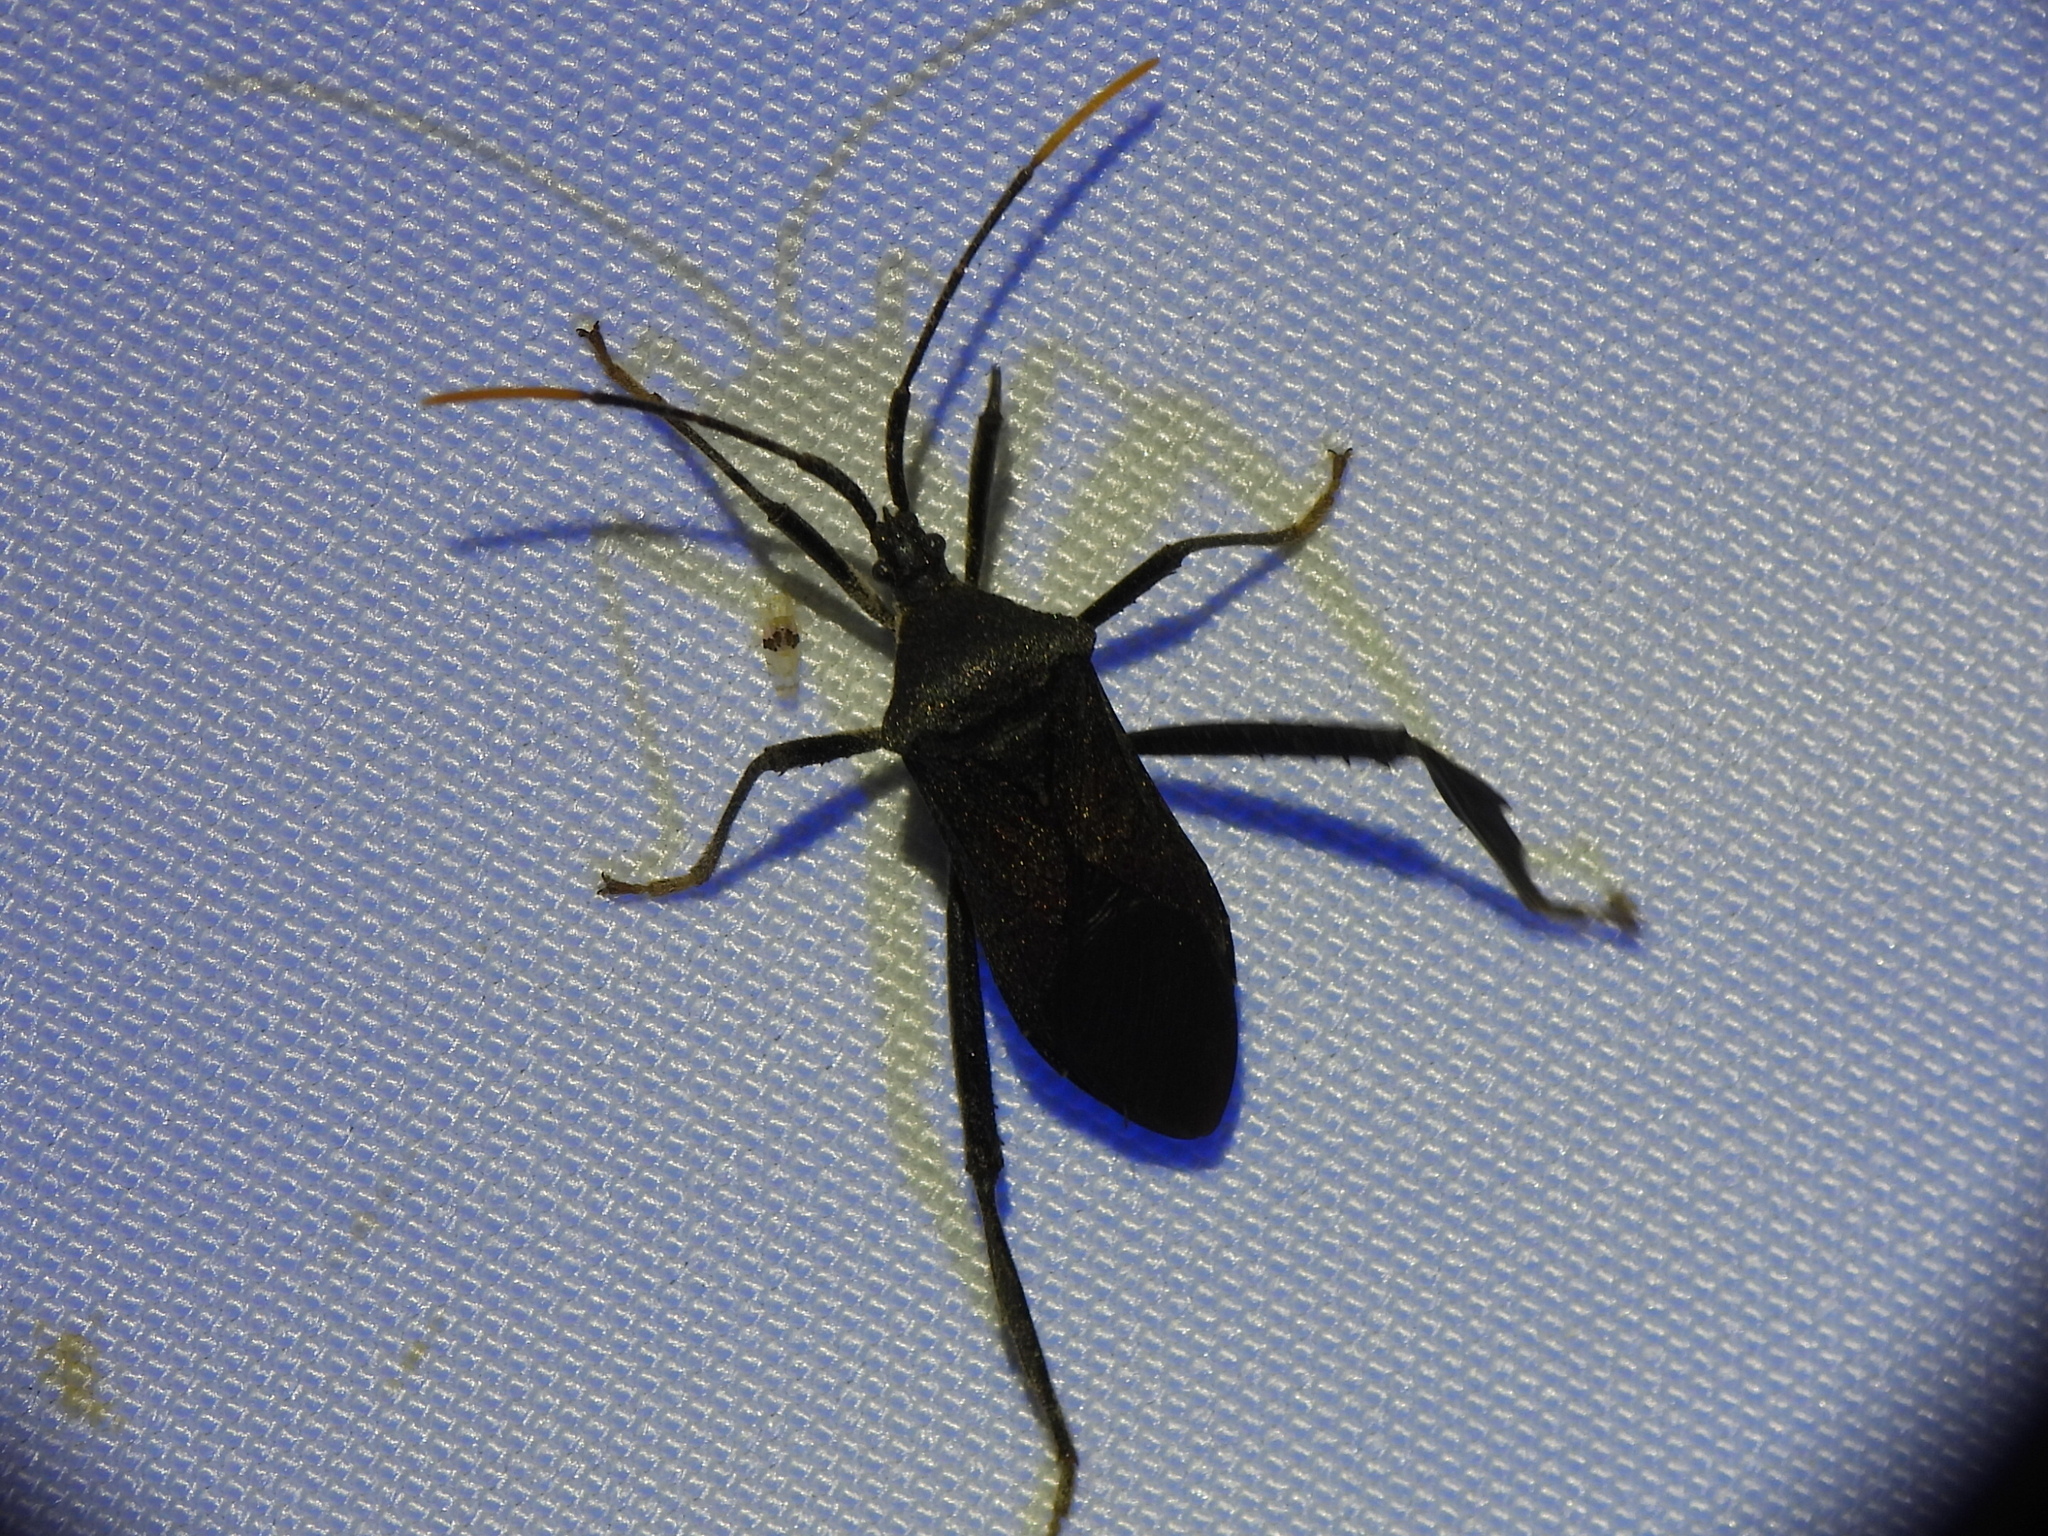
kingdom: Animalia
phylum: Arthropoda
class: Insecta
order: Hemiptera
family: Coreidae
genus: Acanthocephala
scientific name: Acanthocephala terminalis
